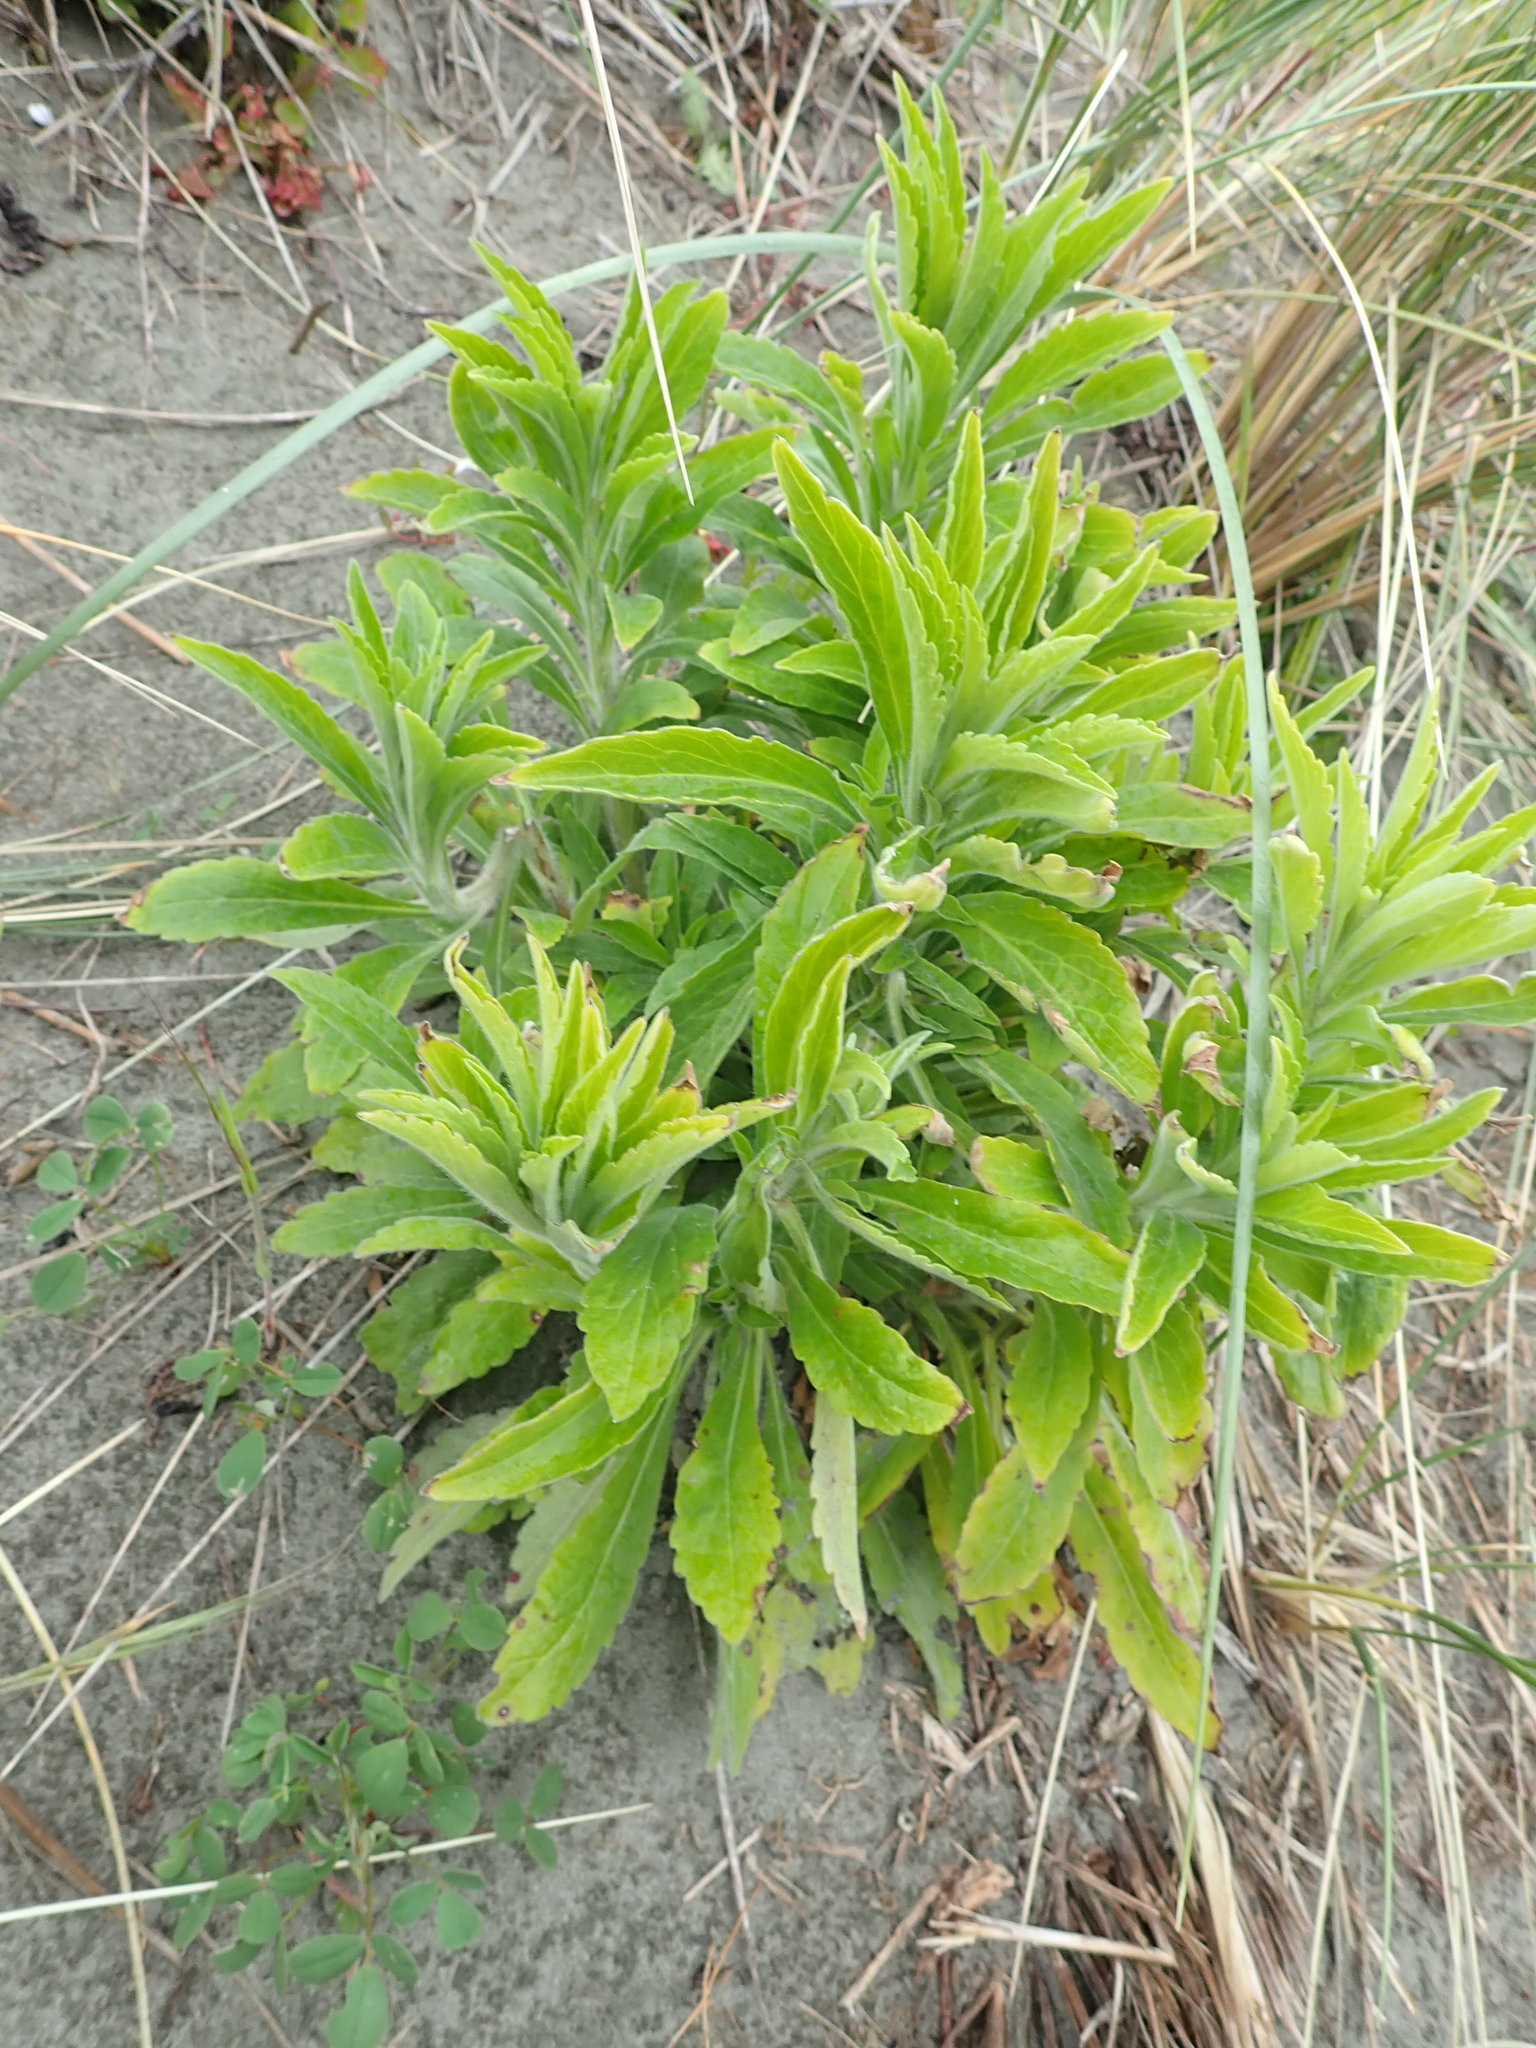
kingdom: Plantae
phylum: Tracheophyta
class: Magnoliopsida
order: Asterales
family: Asteraceae
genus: Erigeron
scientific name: Erigeron sumatrensis
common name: Daisy
